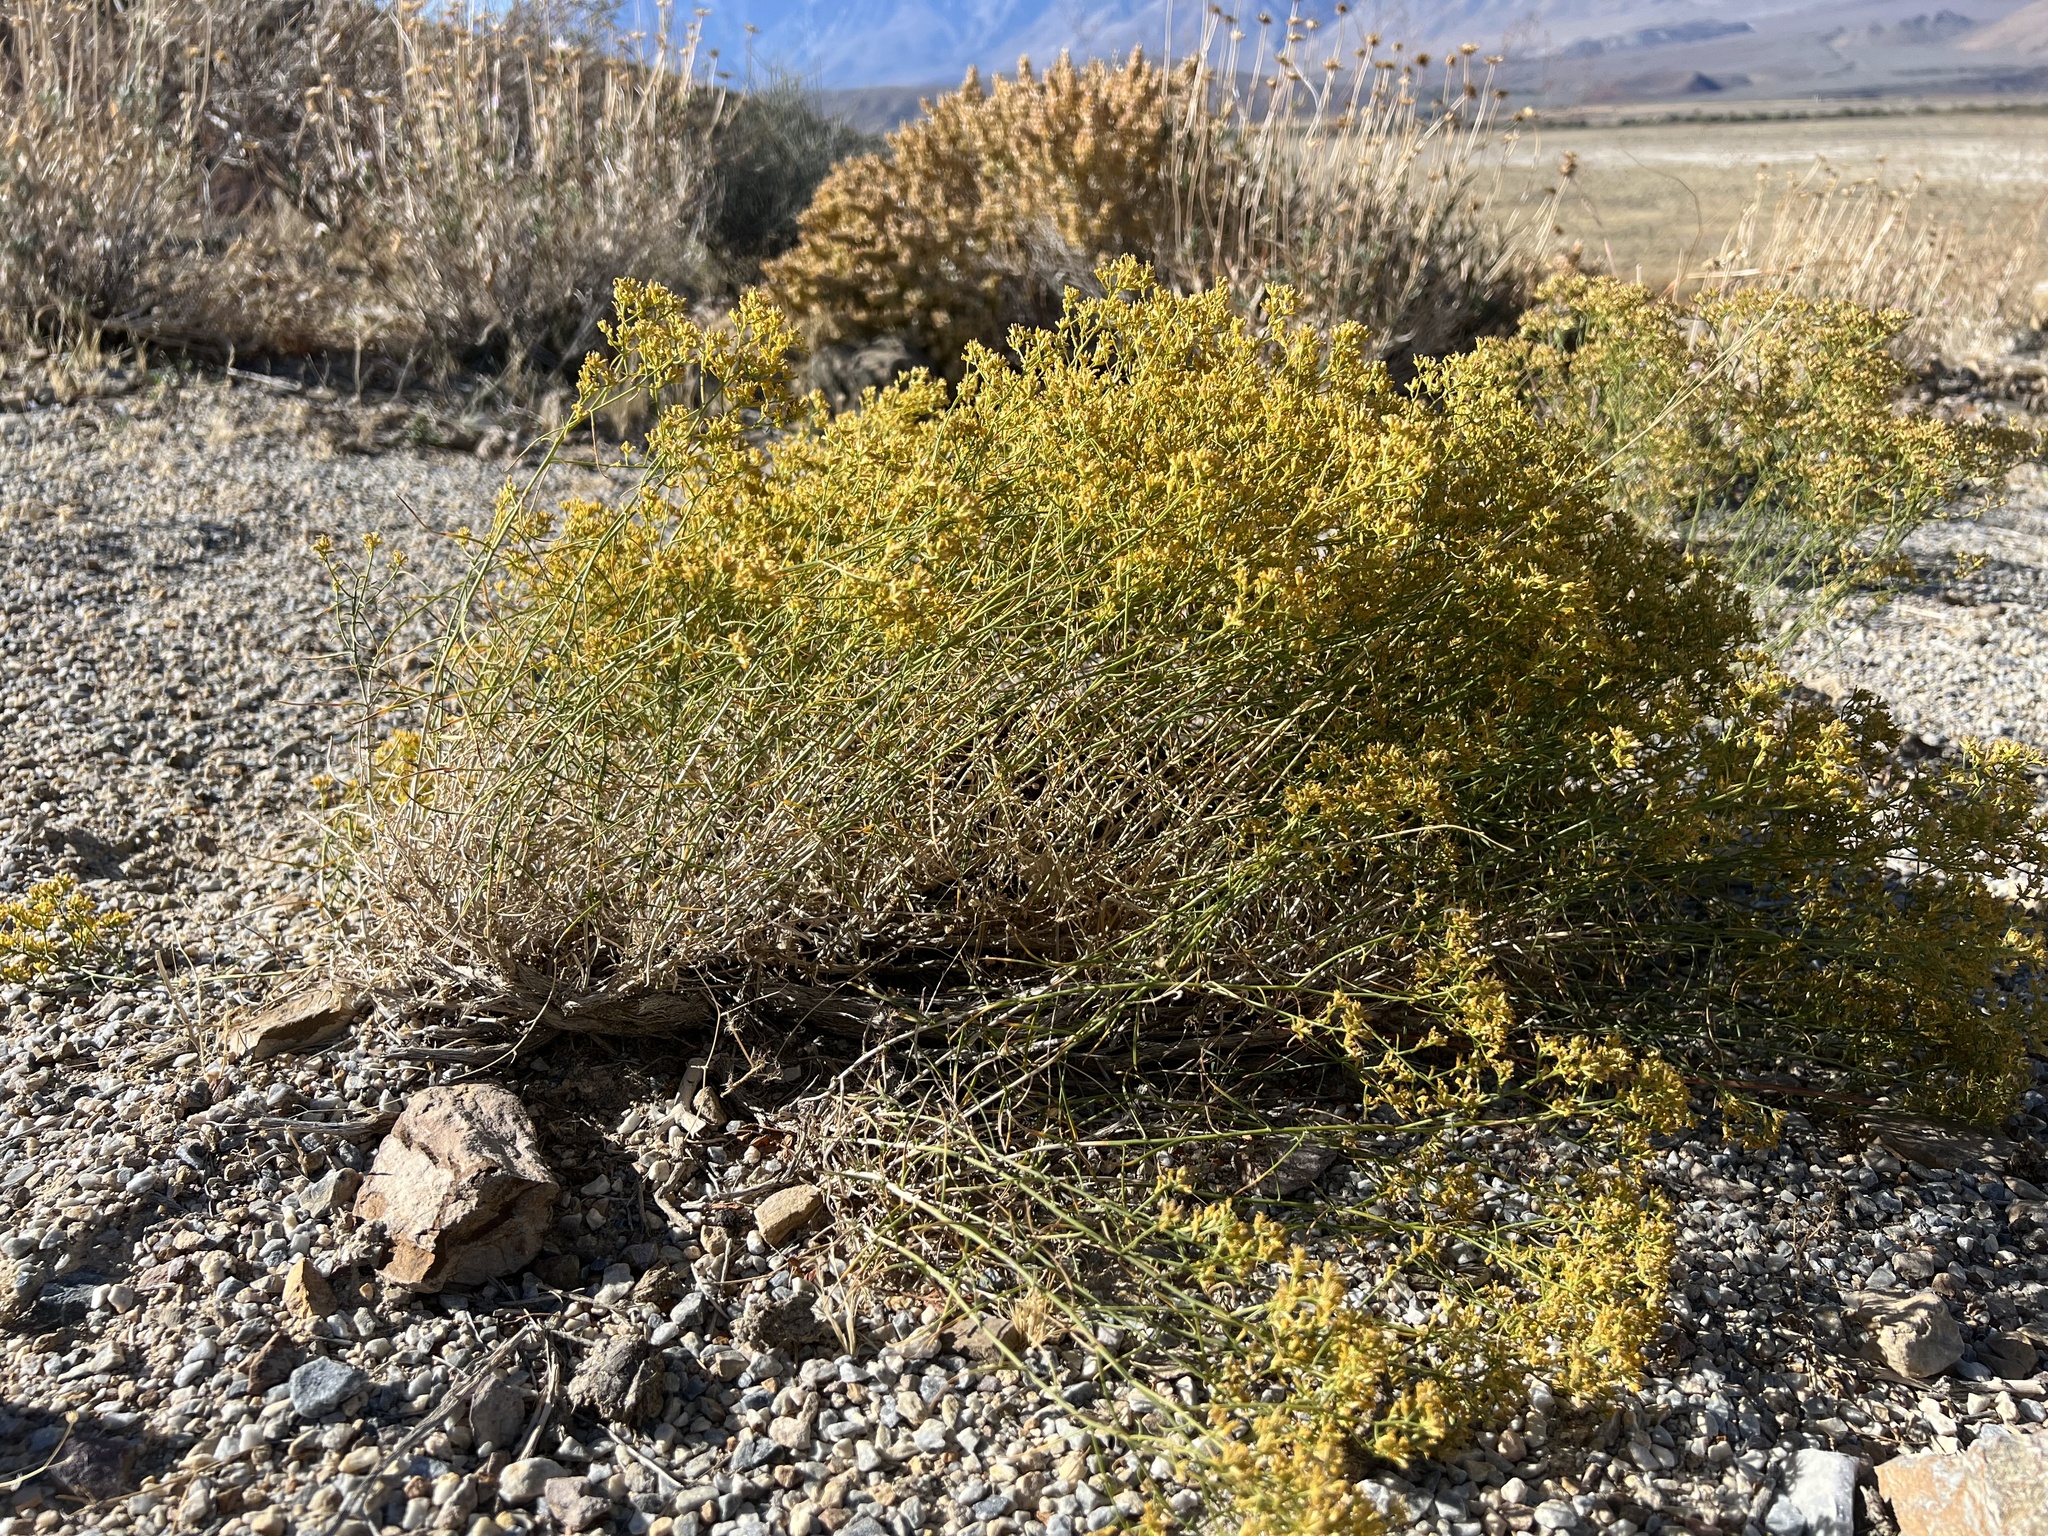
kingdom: Plantae
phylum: Tracheophyta
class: Magnoliopsida
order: Asterales
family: Asteraceae
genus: Gutierrezia
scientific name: Gutierrezia microcephala
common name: Thread snakeweed
